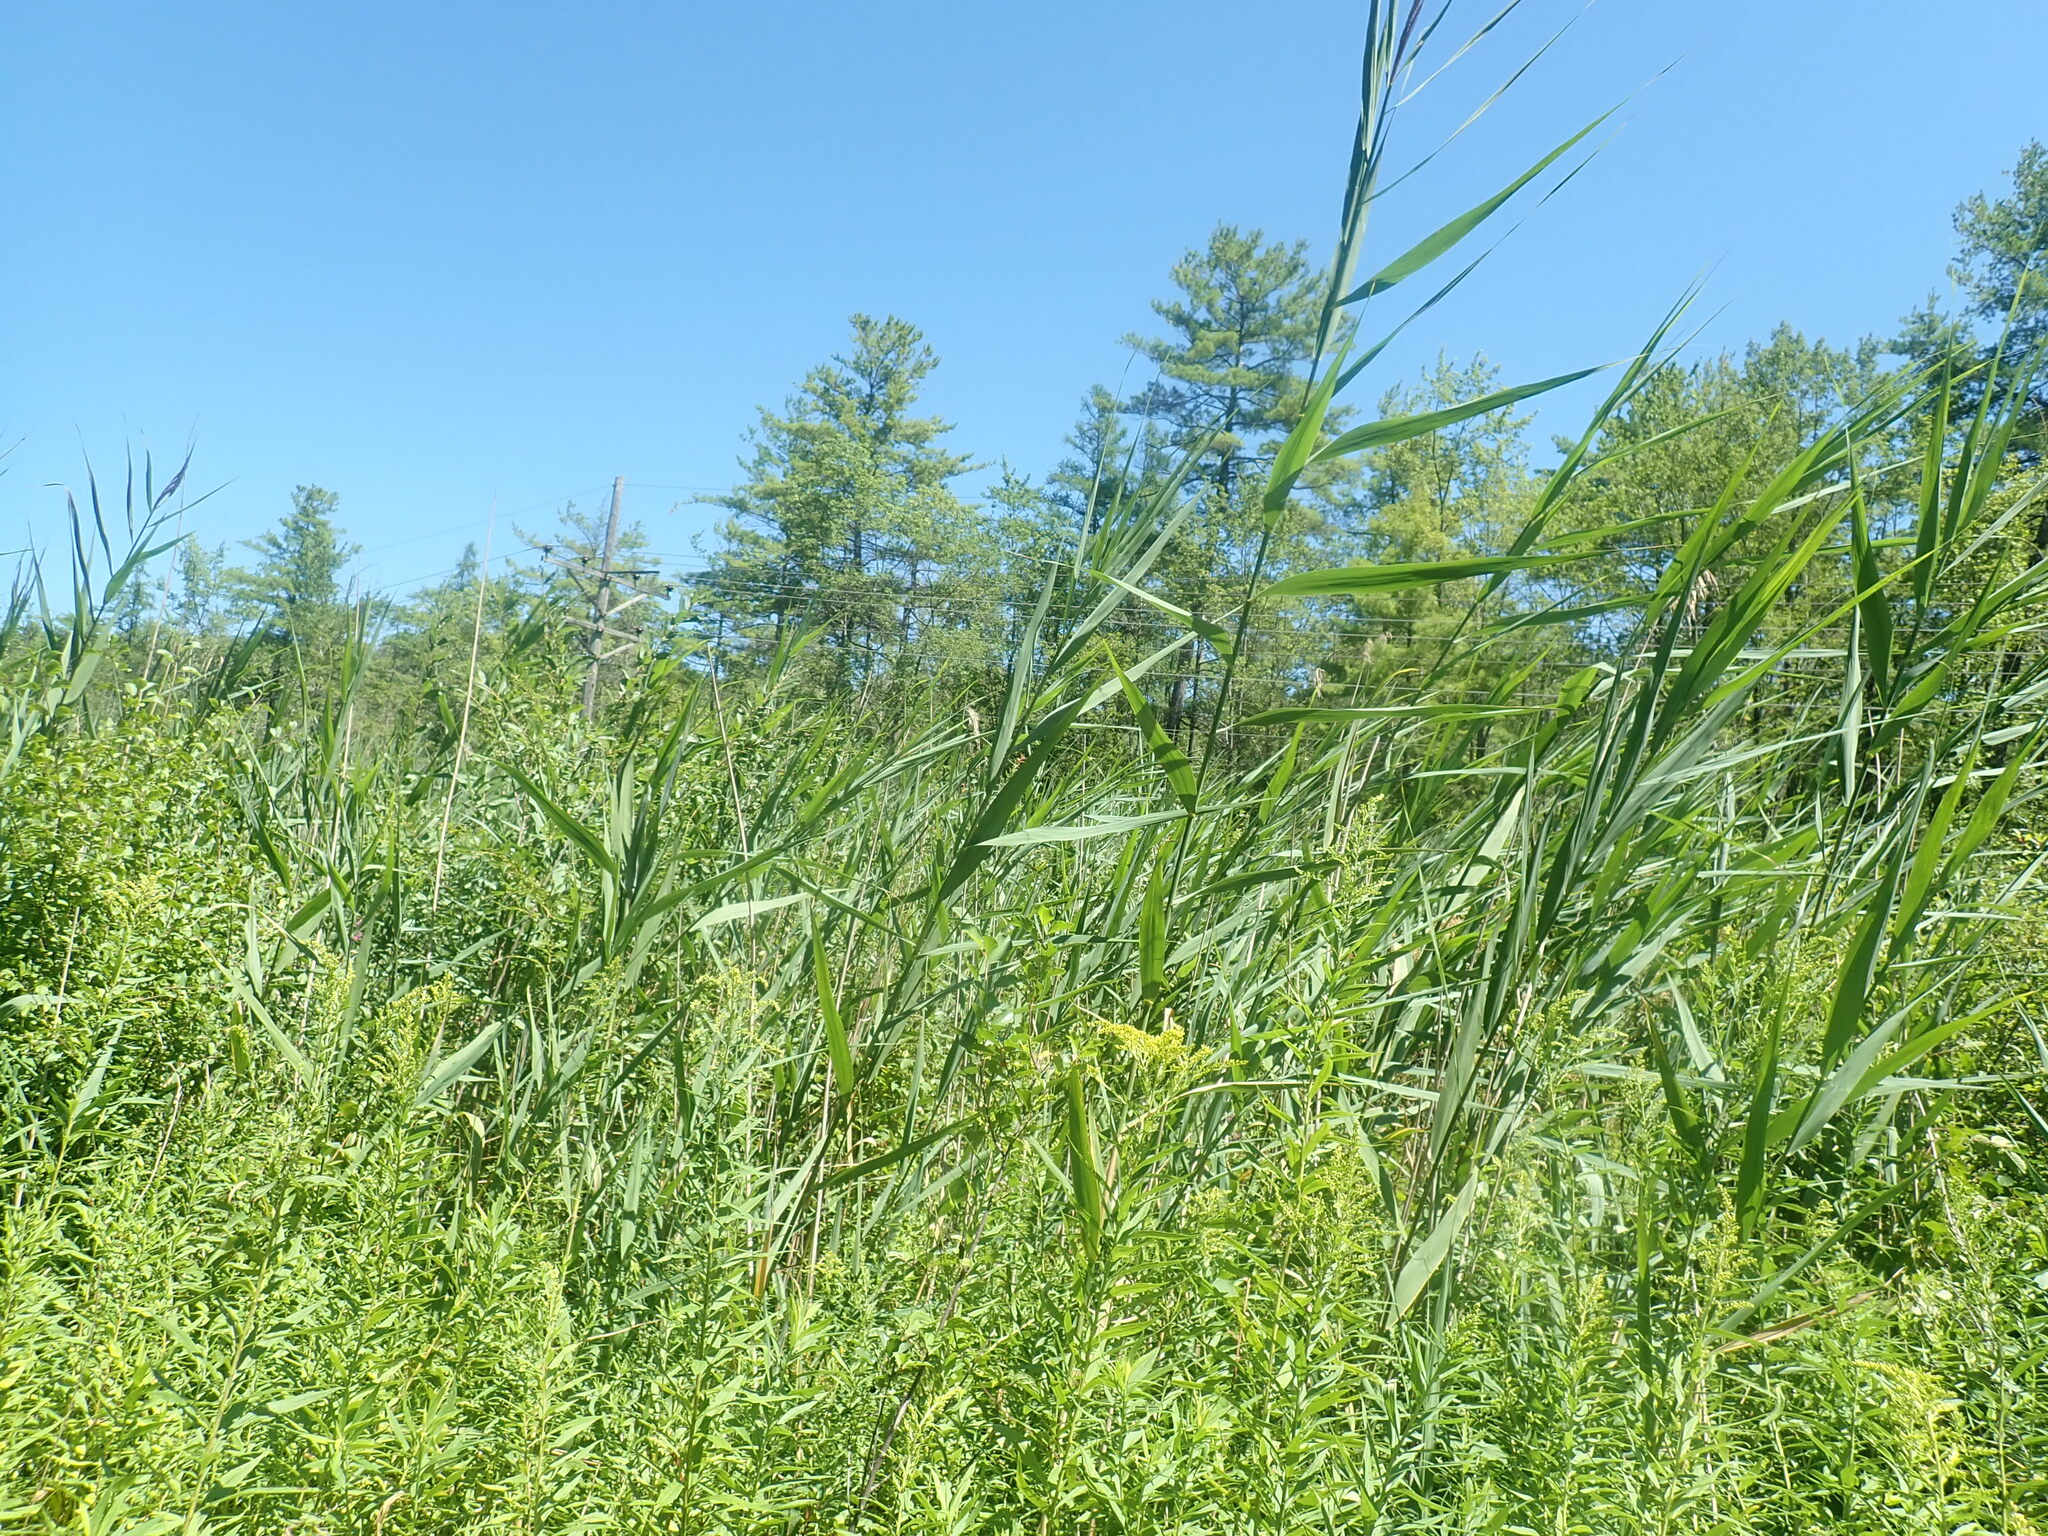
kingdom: Plantae
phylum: Tracheophyta
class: Liliopsida
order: Poales
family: Poaceae
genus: Phragmites
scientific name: Phragmites australis
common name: Common reed
